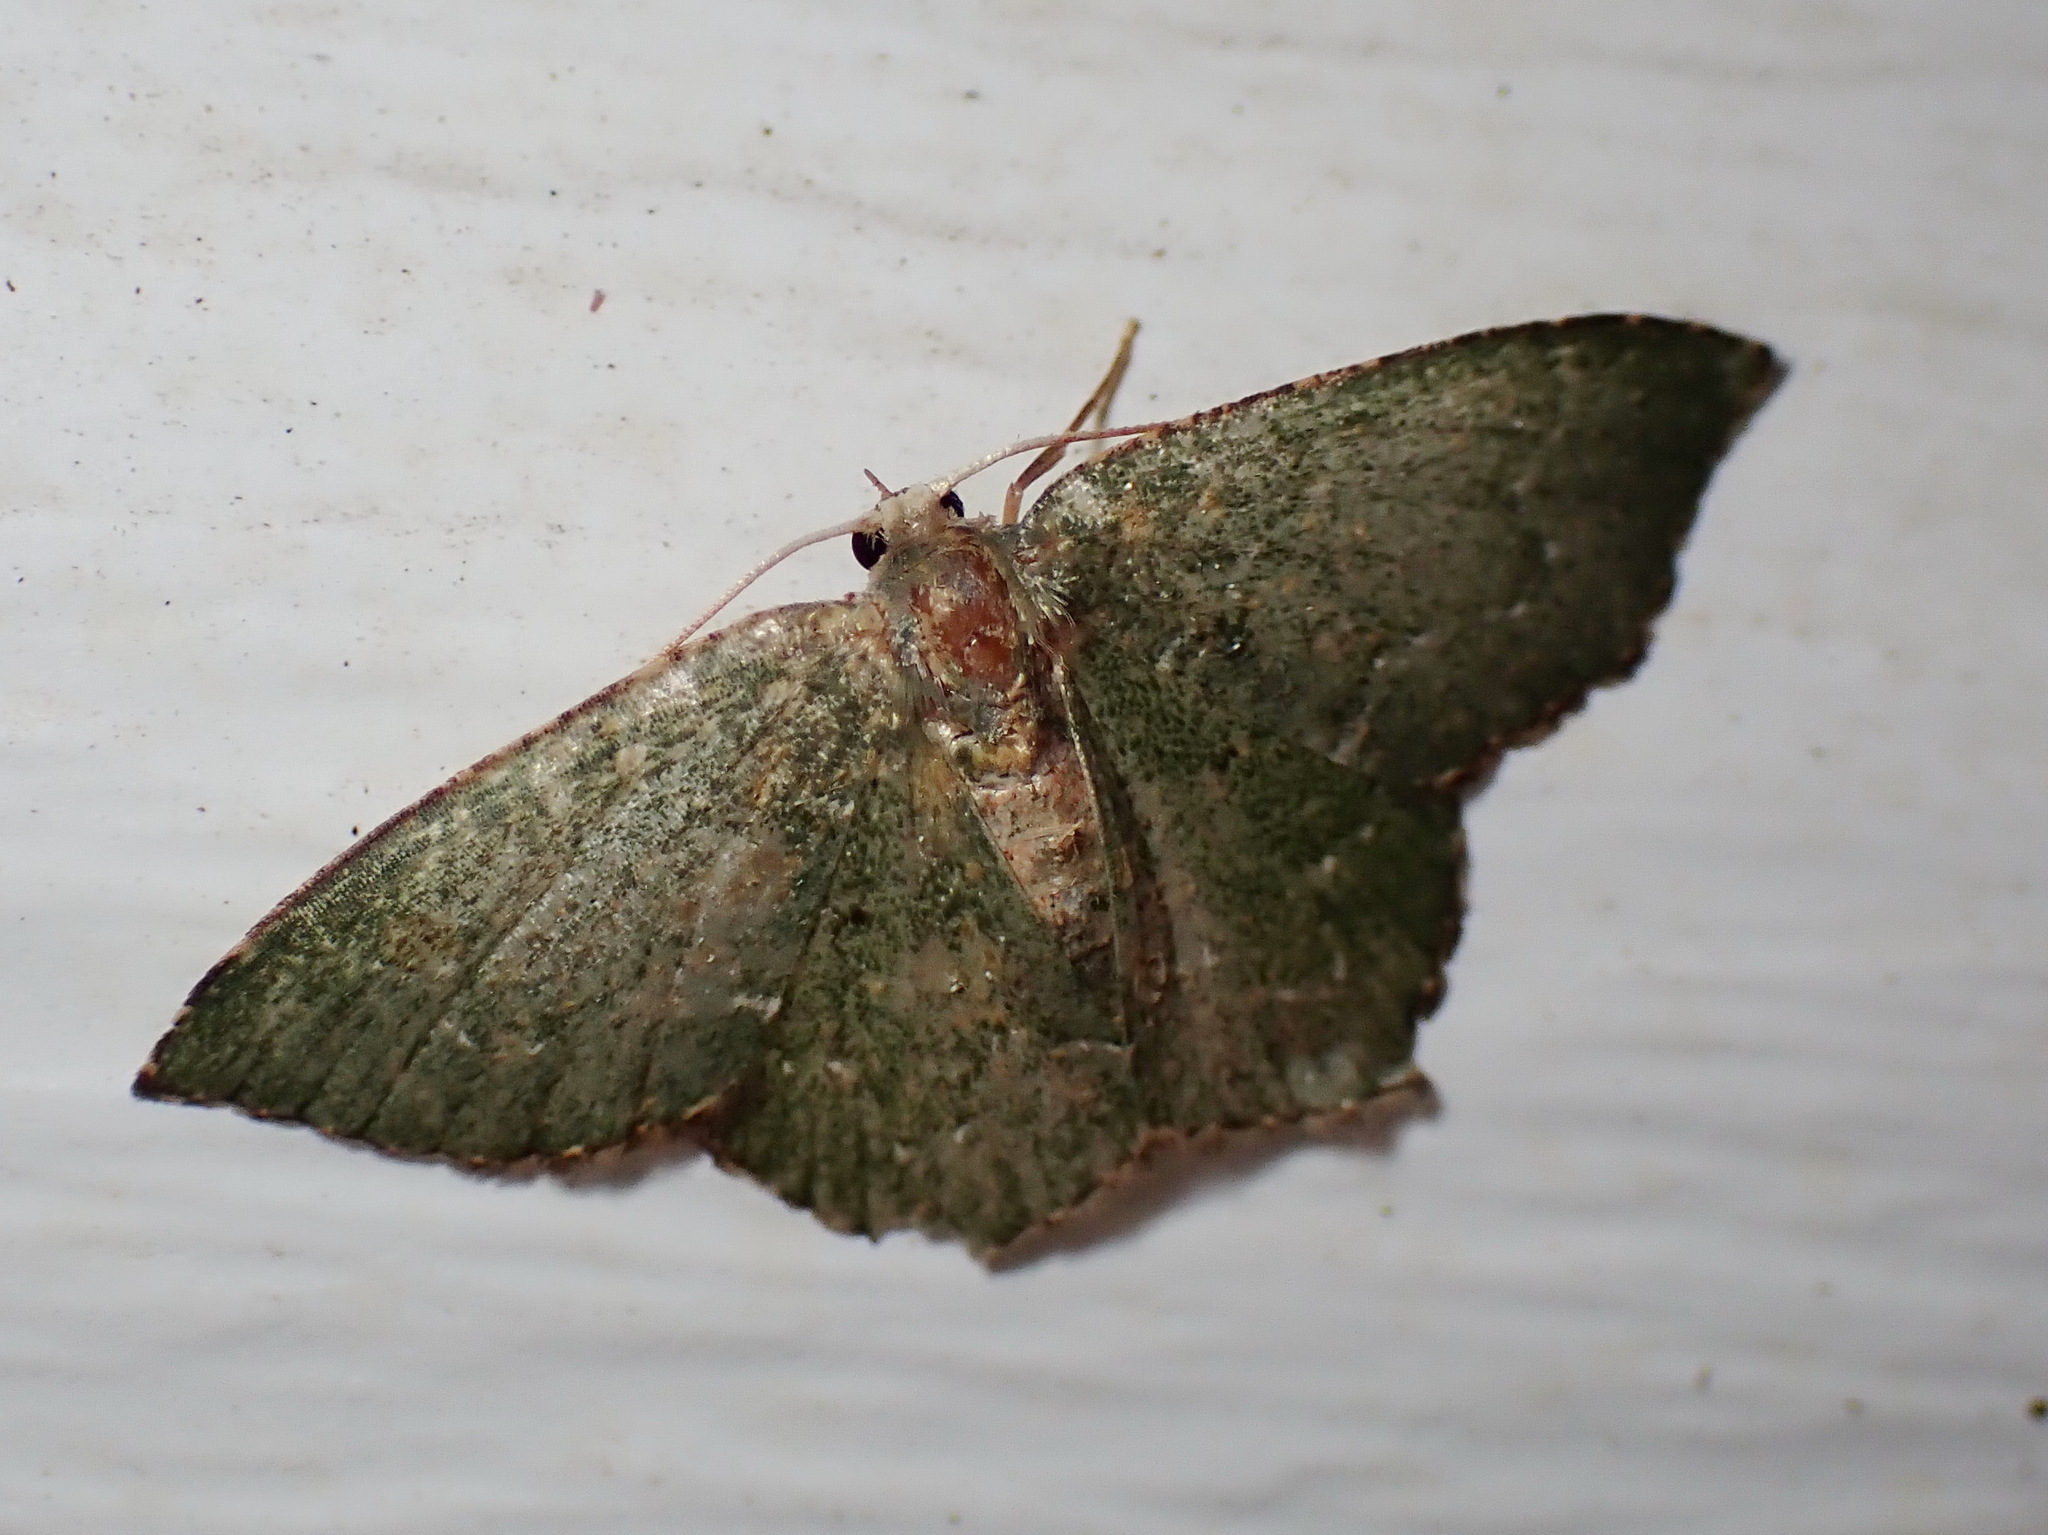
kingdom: Animalia
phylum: Arthropoda
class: Insecta
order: Lepidoptera
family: Geometridae
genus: Chloropteryx
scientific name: Chloropteryx nordicaria
